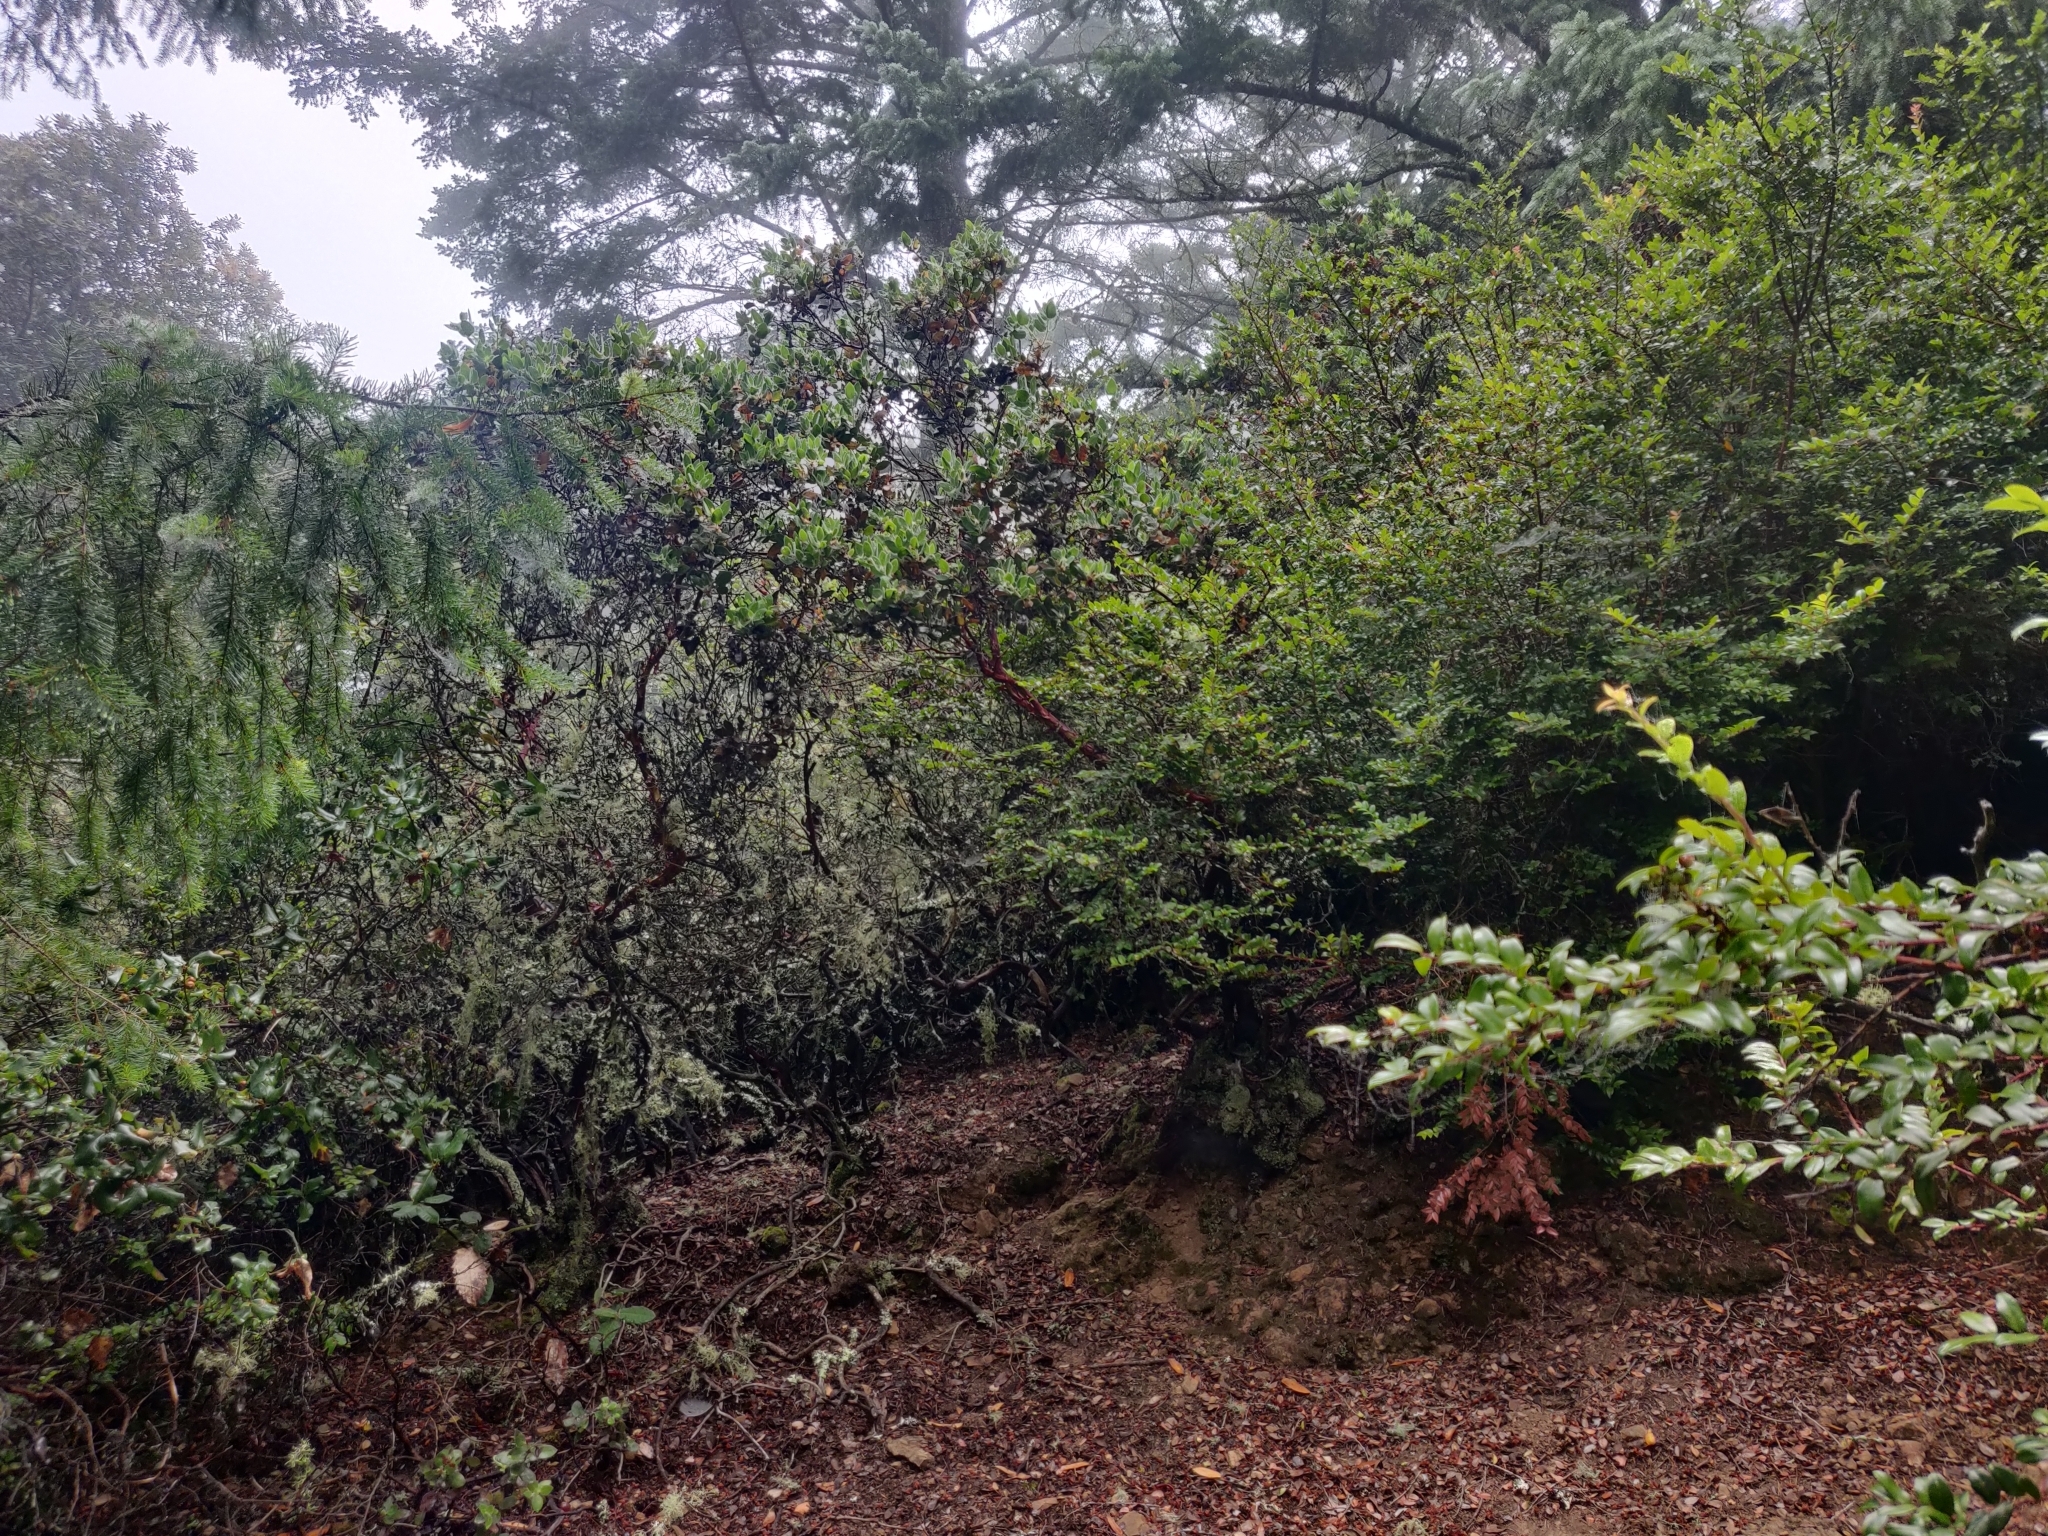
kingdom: Plantae
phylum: Tracheophyta
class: Magnoliopsida
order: Ericales
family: Ericaceae
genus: Arctostaphylos
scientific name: Arctostaphylos glandulosa
